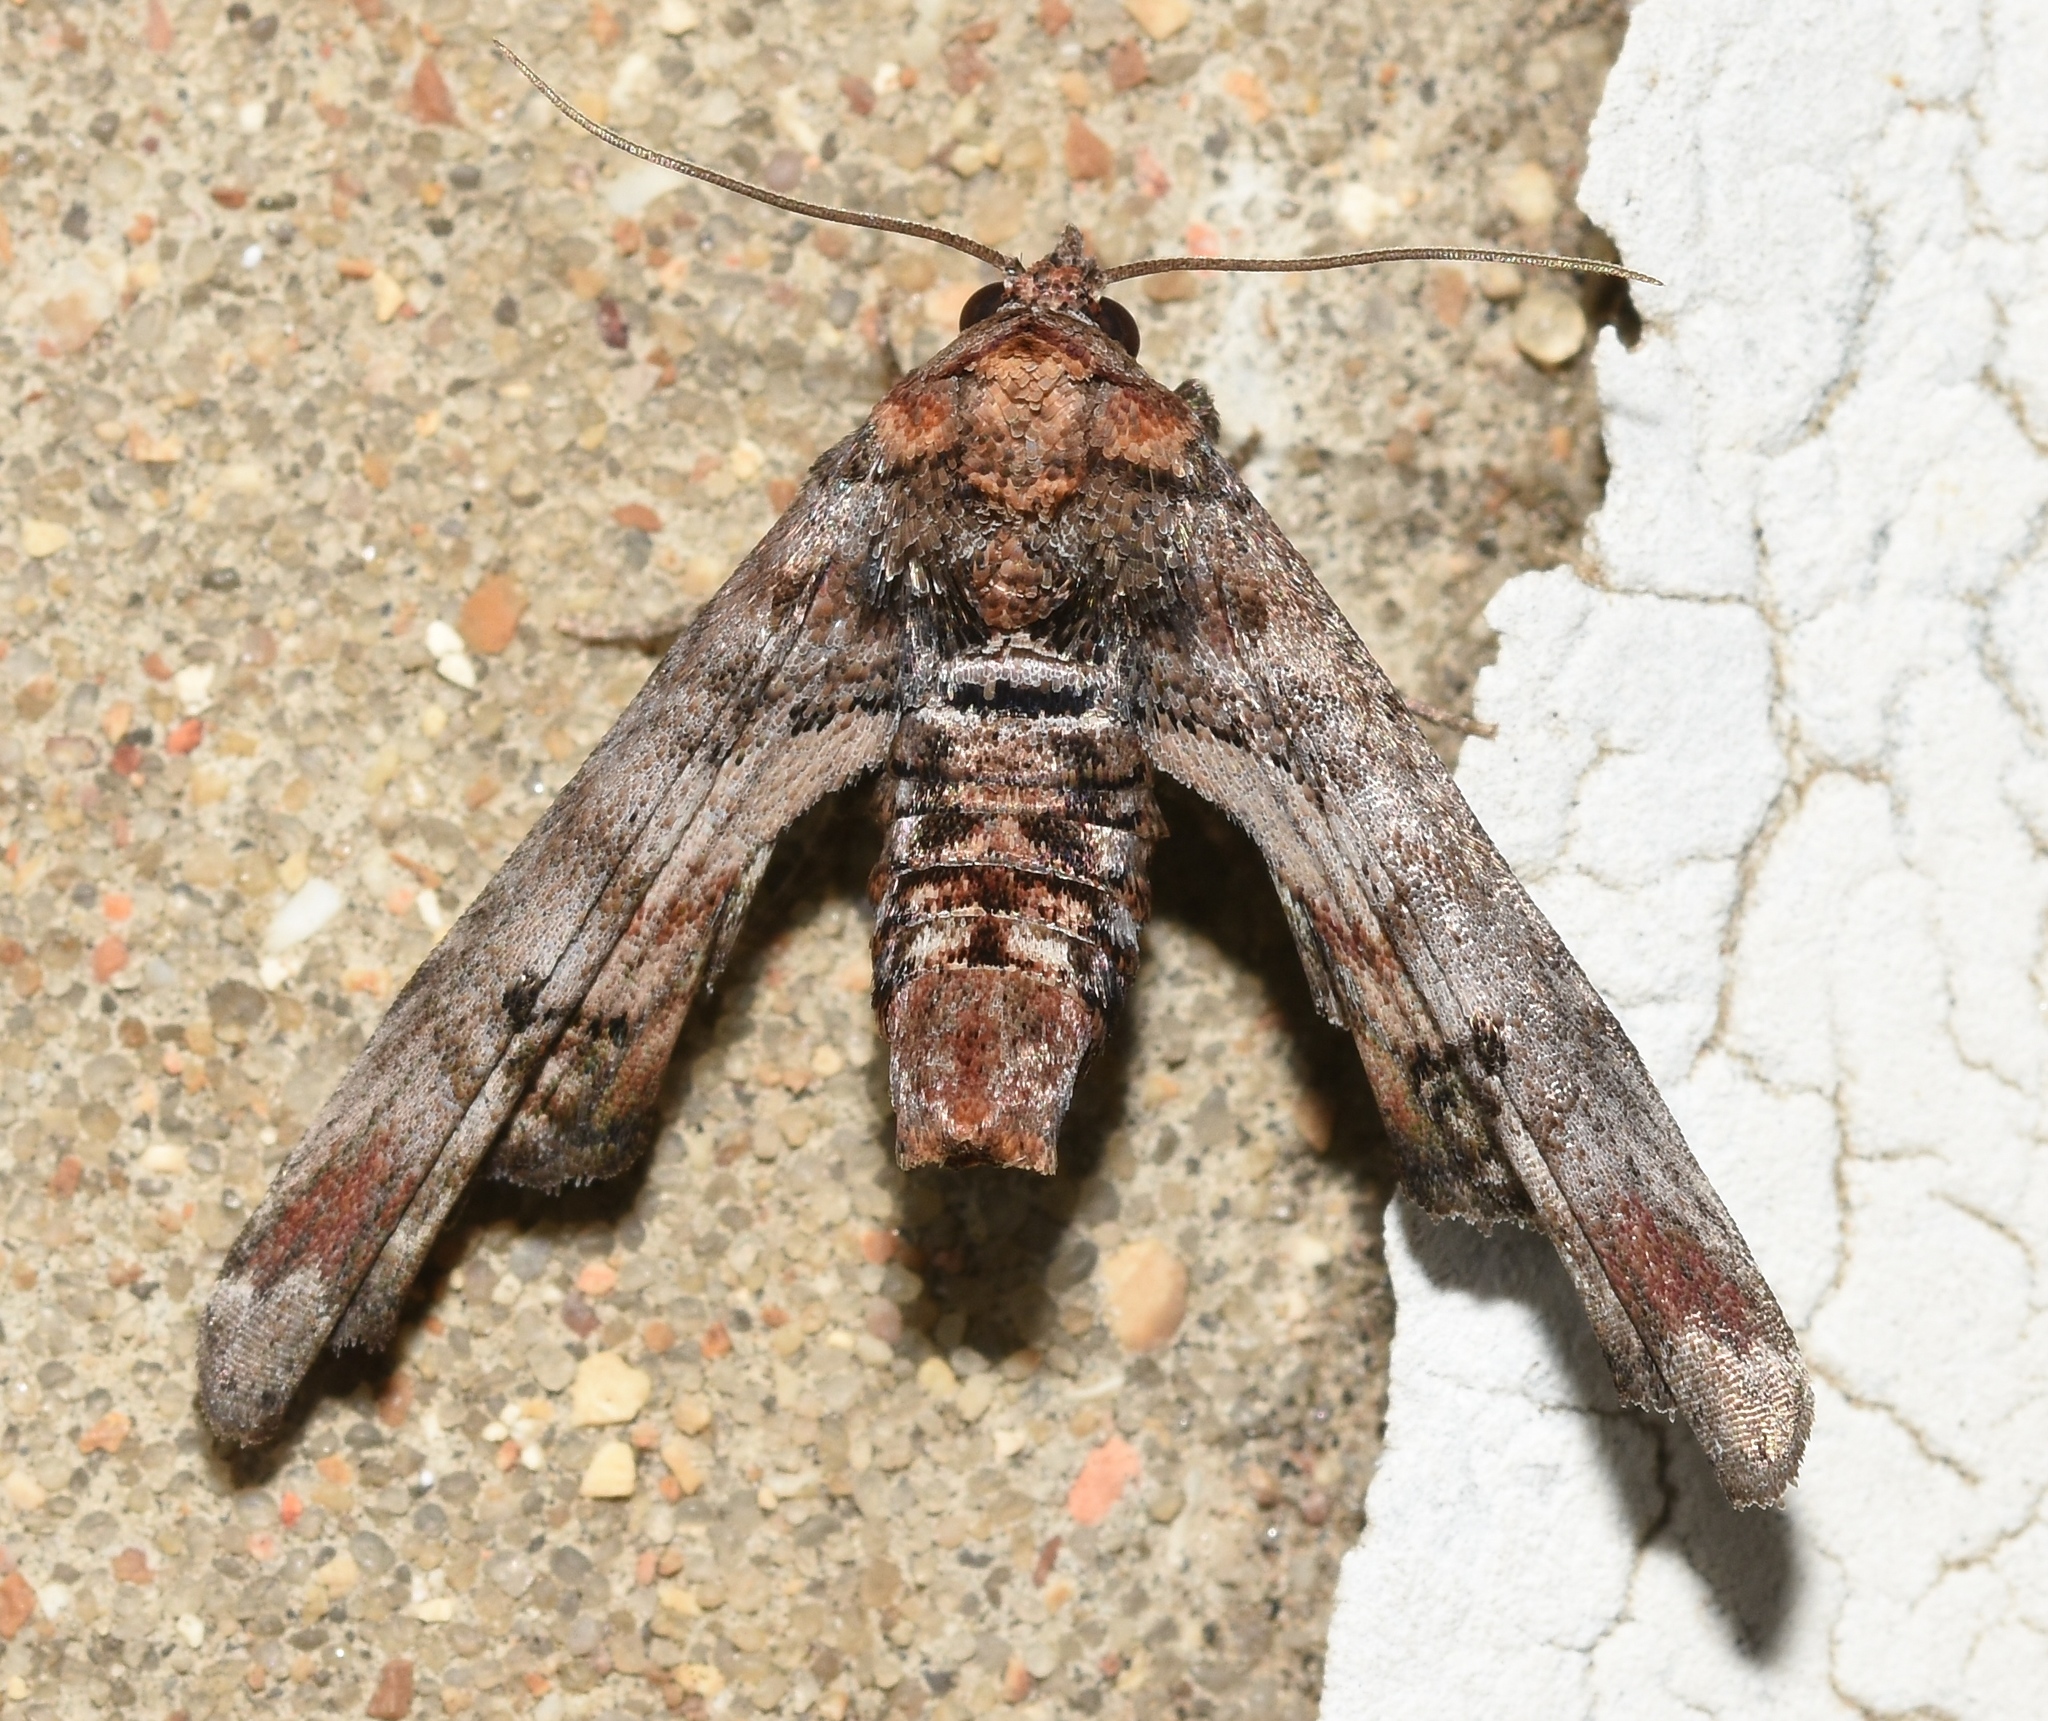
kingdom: Animalia
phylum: Arthropoda
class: Insecta
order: Lepidoptera
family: Euteliidae
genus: Marathyssa
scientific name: Marathyssa inficita
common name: Dark marathyssa moth
